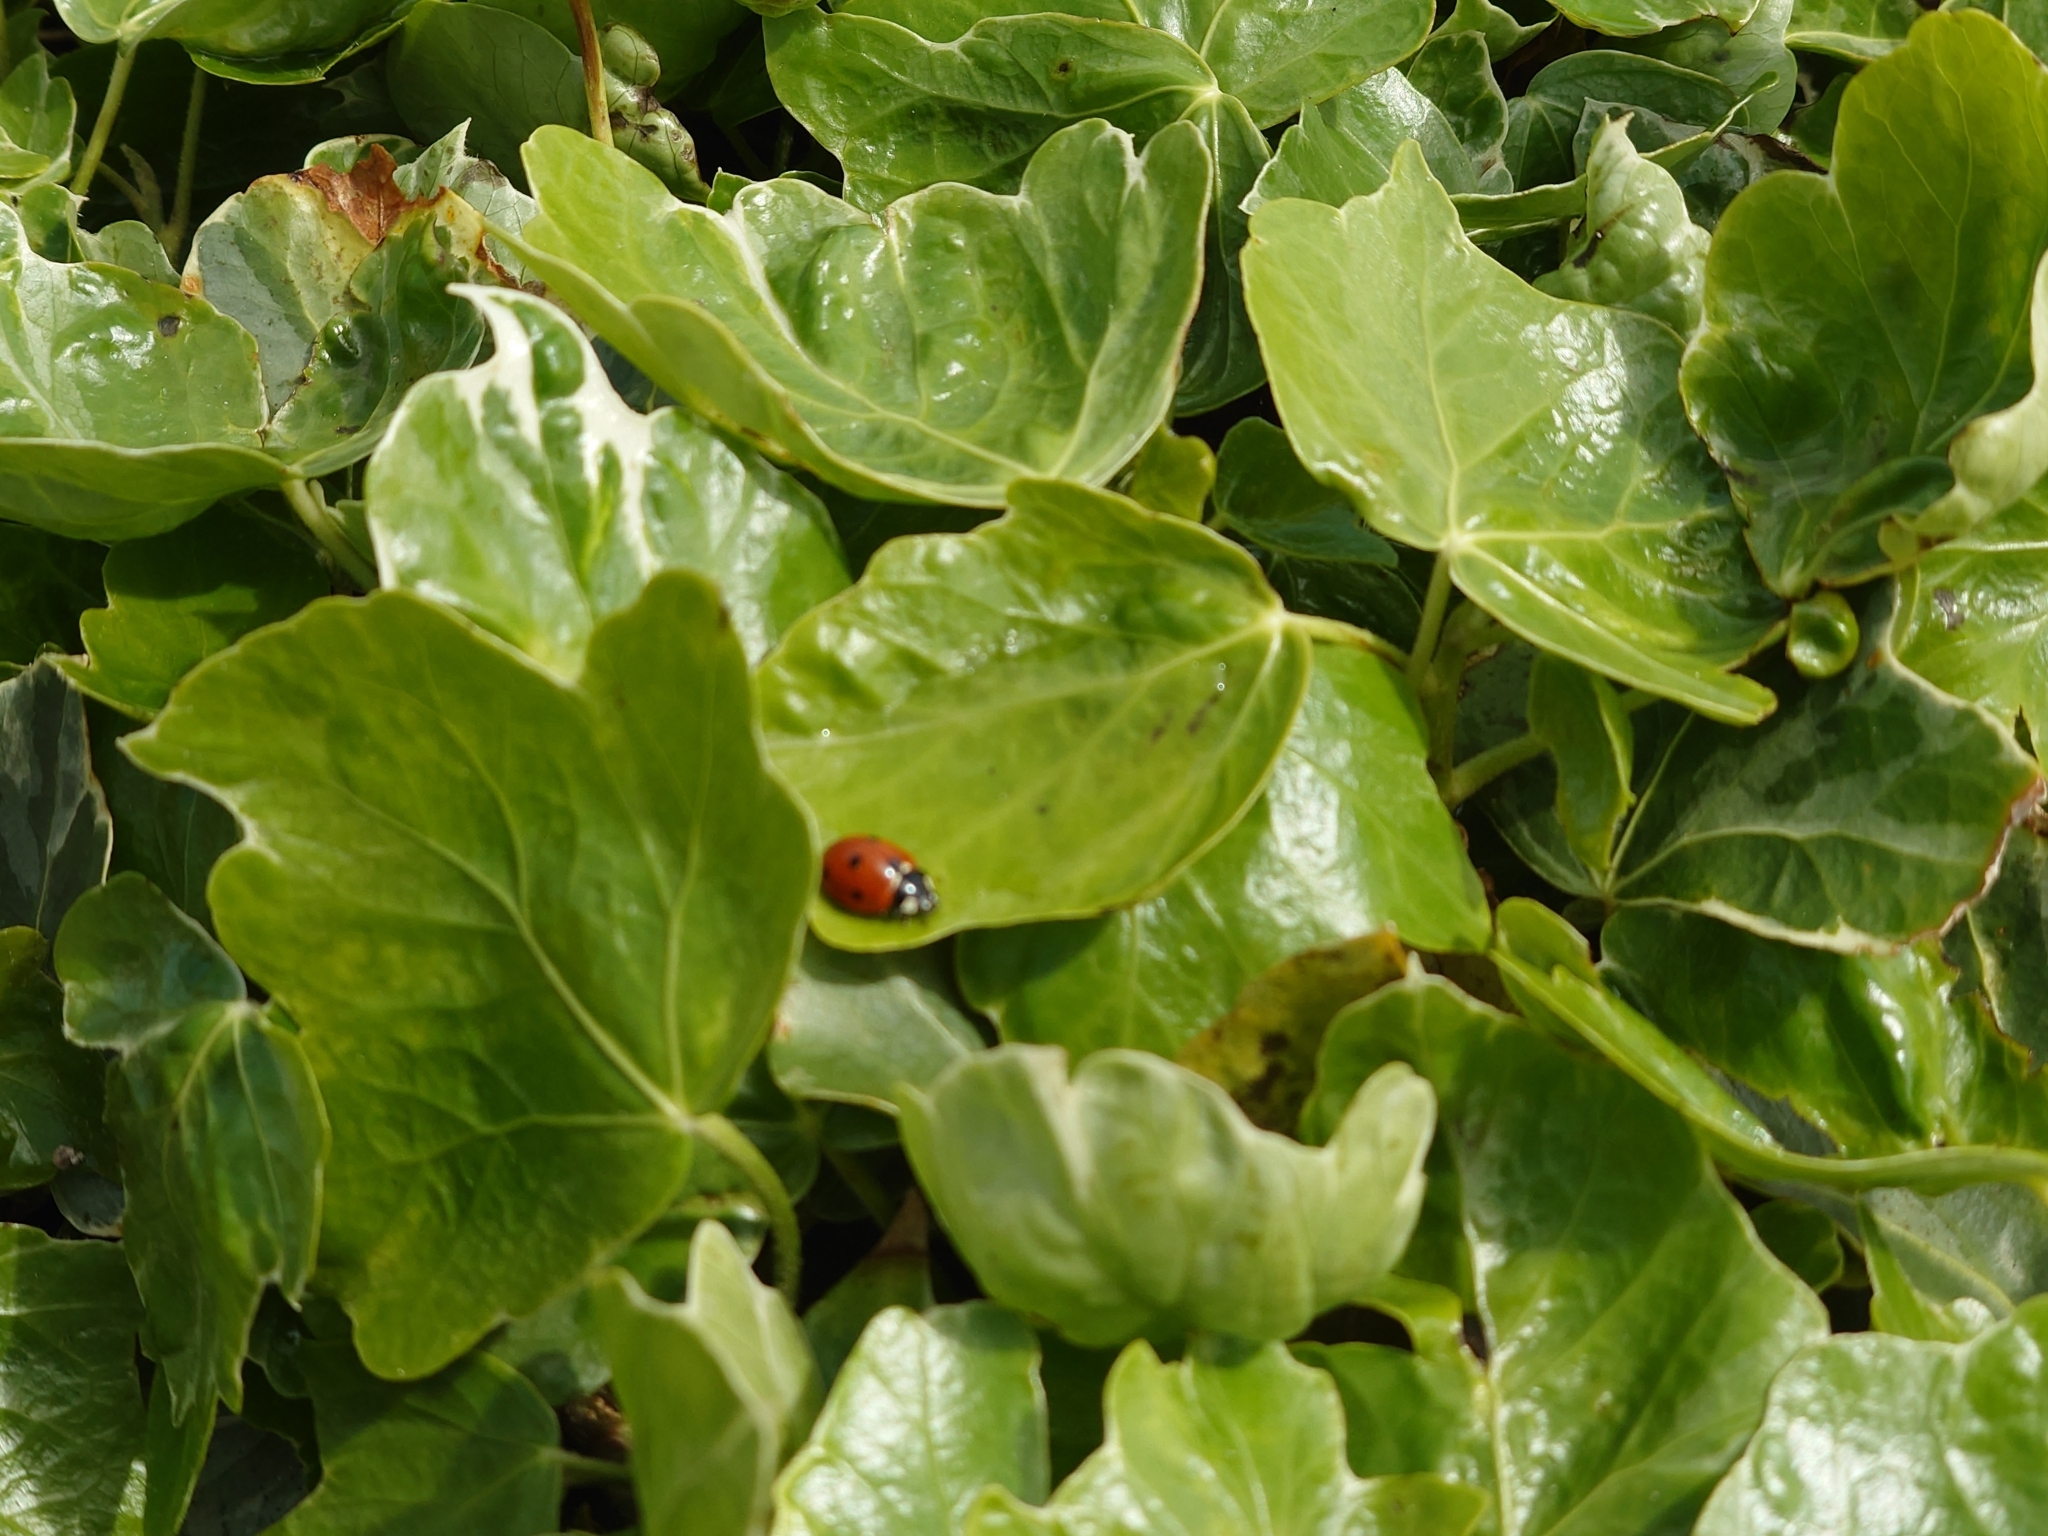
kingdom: Animalia
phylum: Arthropoda
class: Insecta
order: Coleoptera
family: Coccinellidae
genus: Coccinella
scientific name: Coccinella septempunctata
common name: Sevenspotted lady beetle
